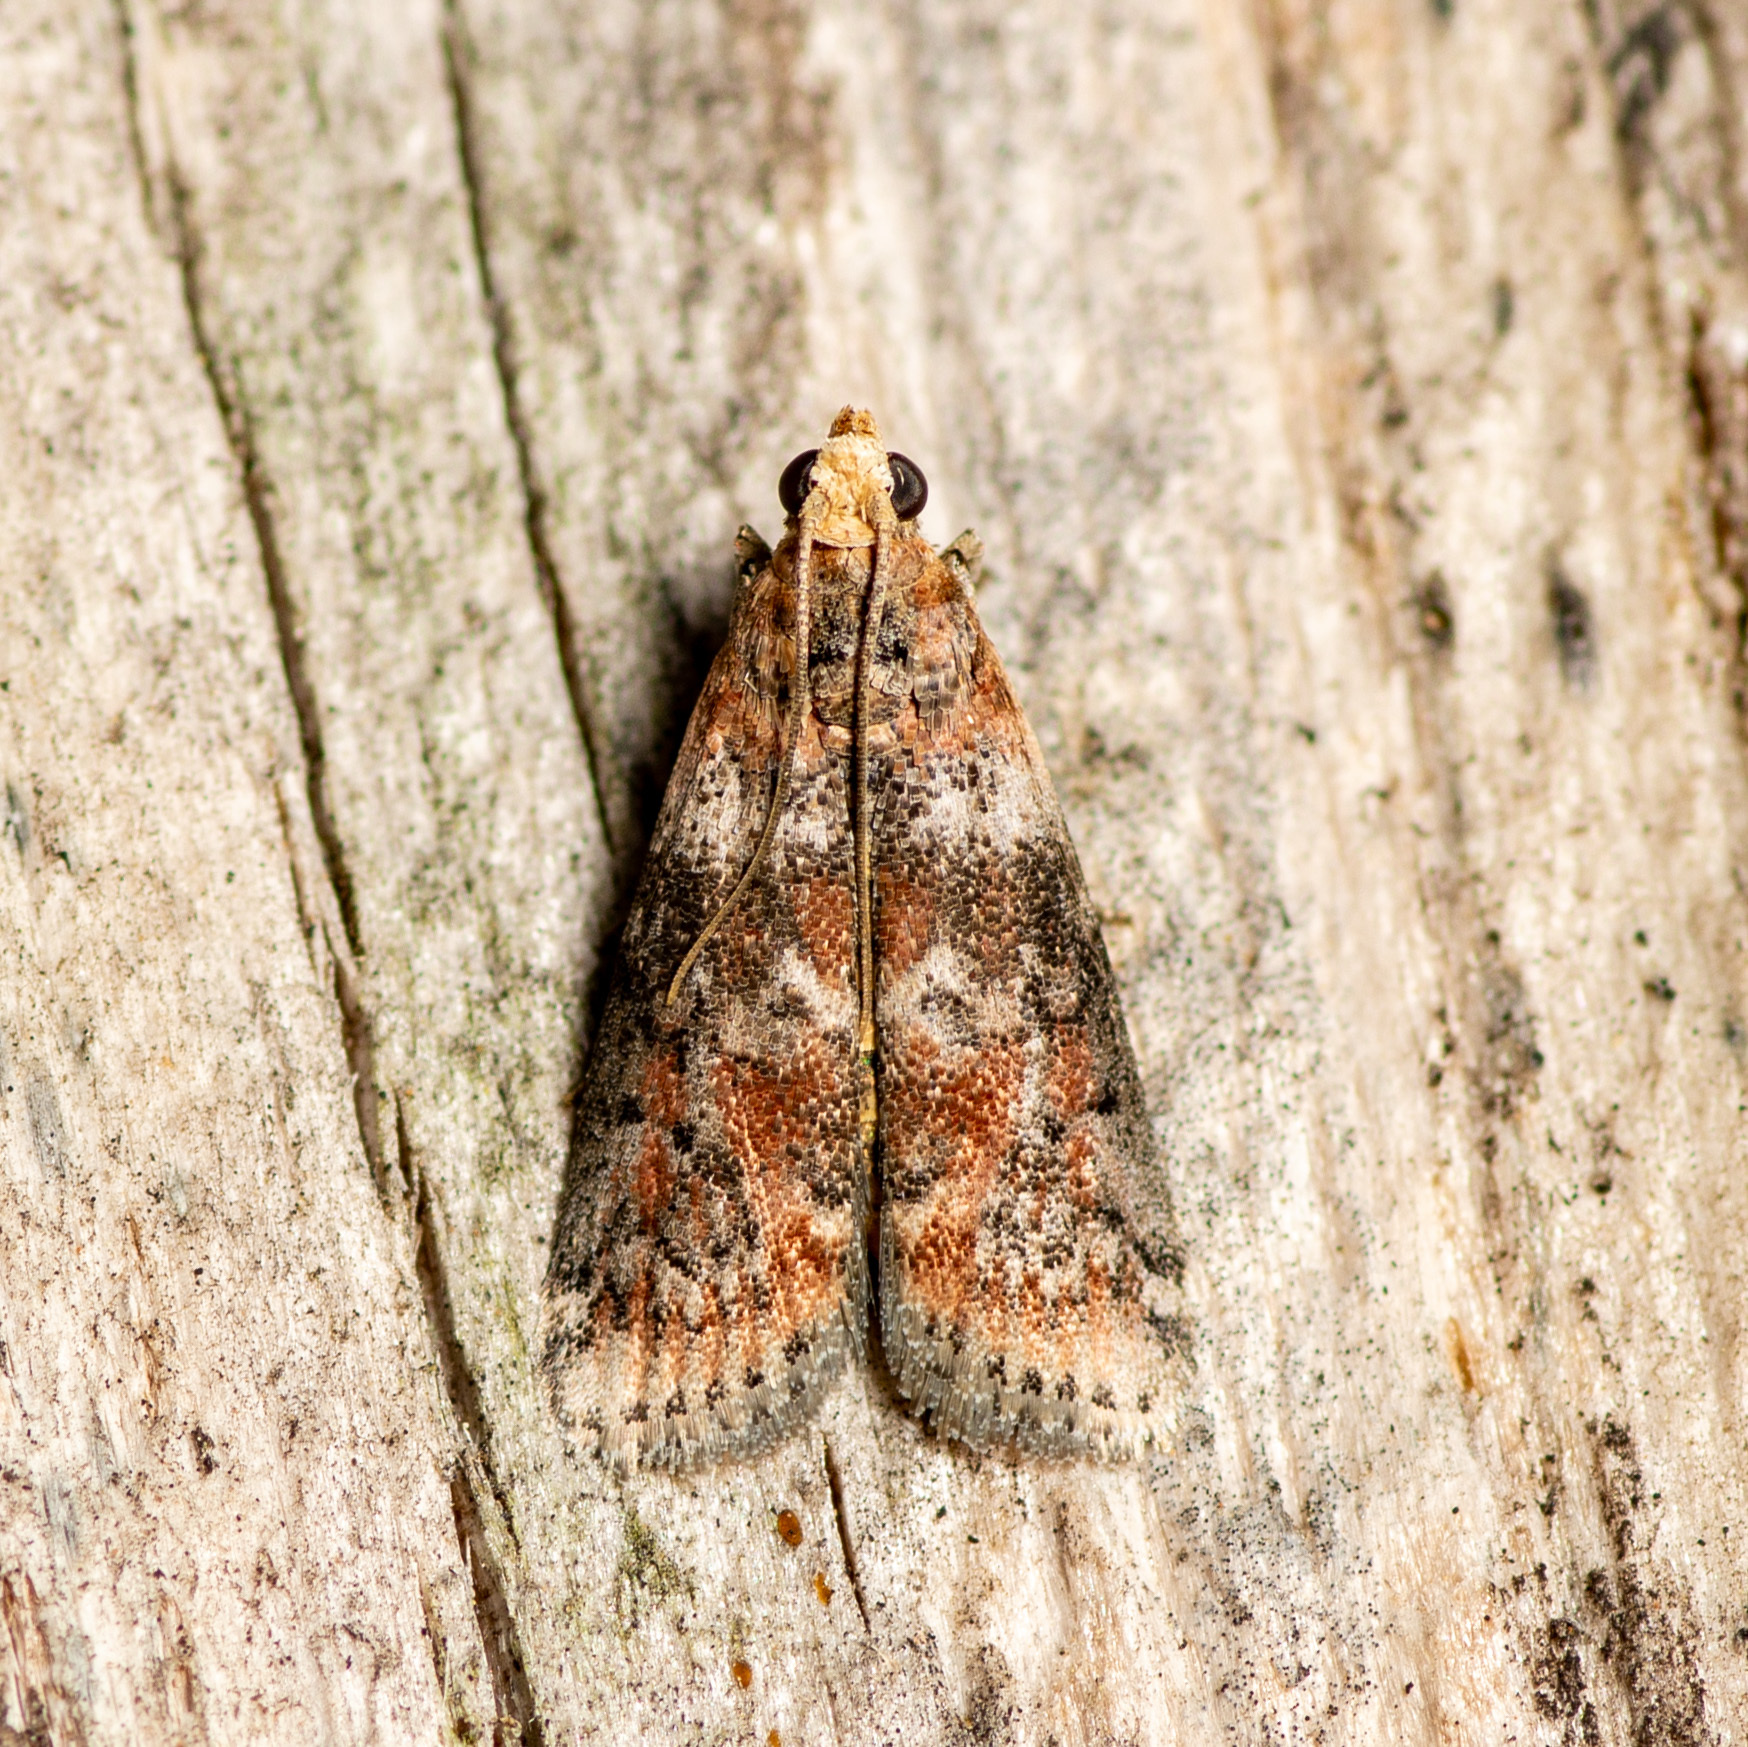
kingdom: Animalia
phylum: Arthropoda
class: Insecta
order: Lepidoptera
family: Pyralidae
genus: Sciota
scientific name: Sciota
